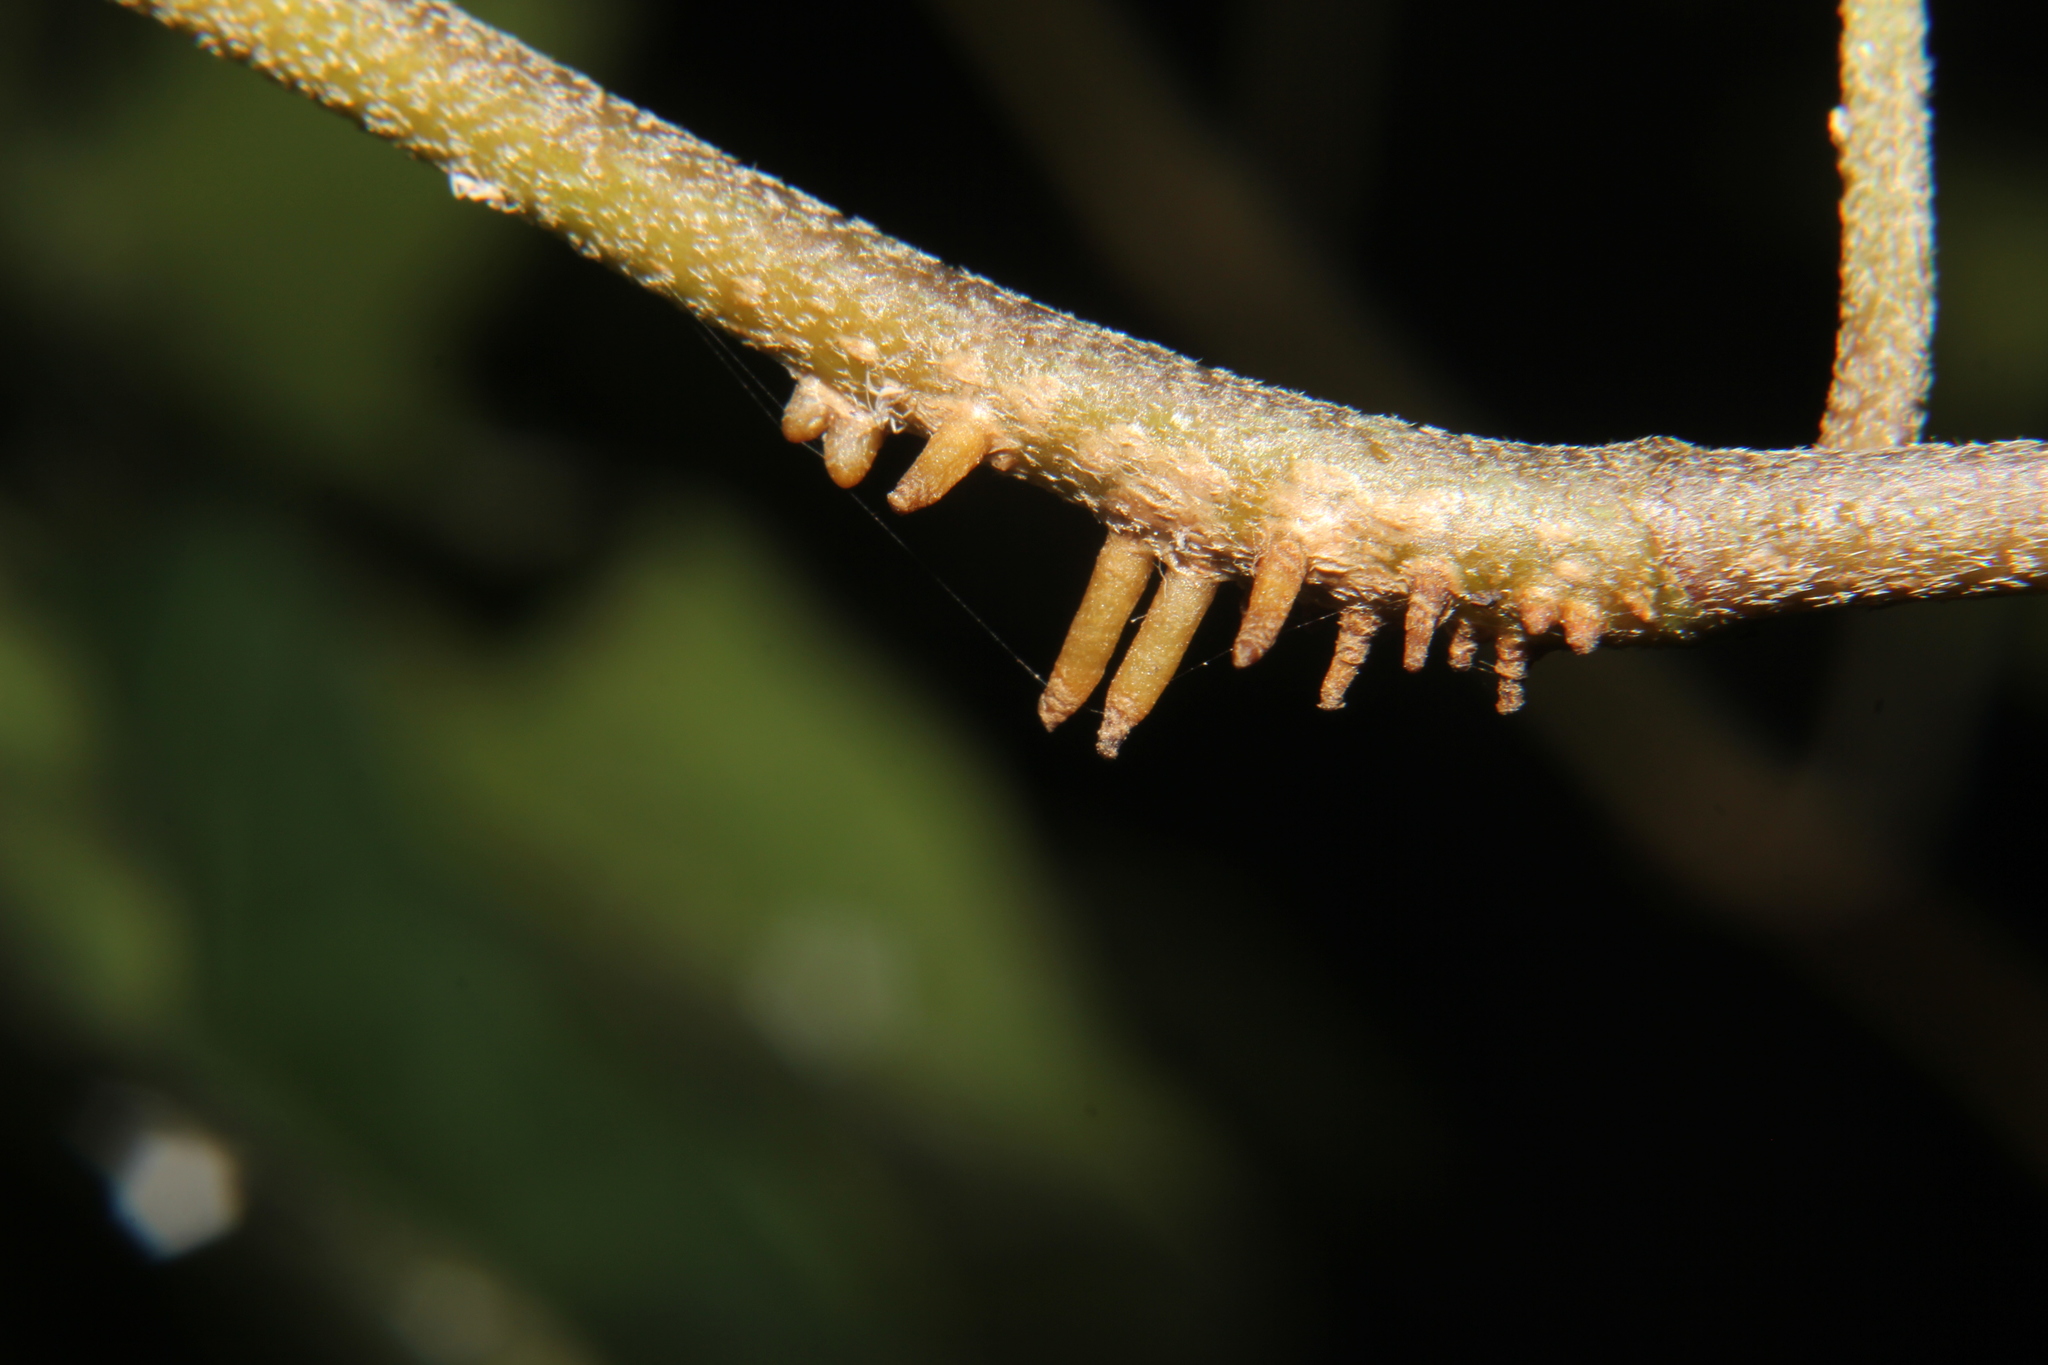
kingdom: Plantae
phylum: Tracheophyta
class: Magnoliopsida
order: Apiales
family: Araliaceae
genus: Hedera
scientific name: Hedera helix
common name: Ivy
